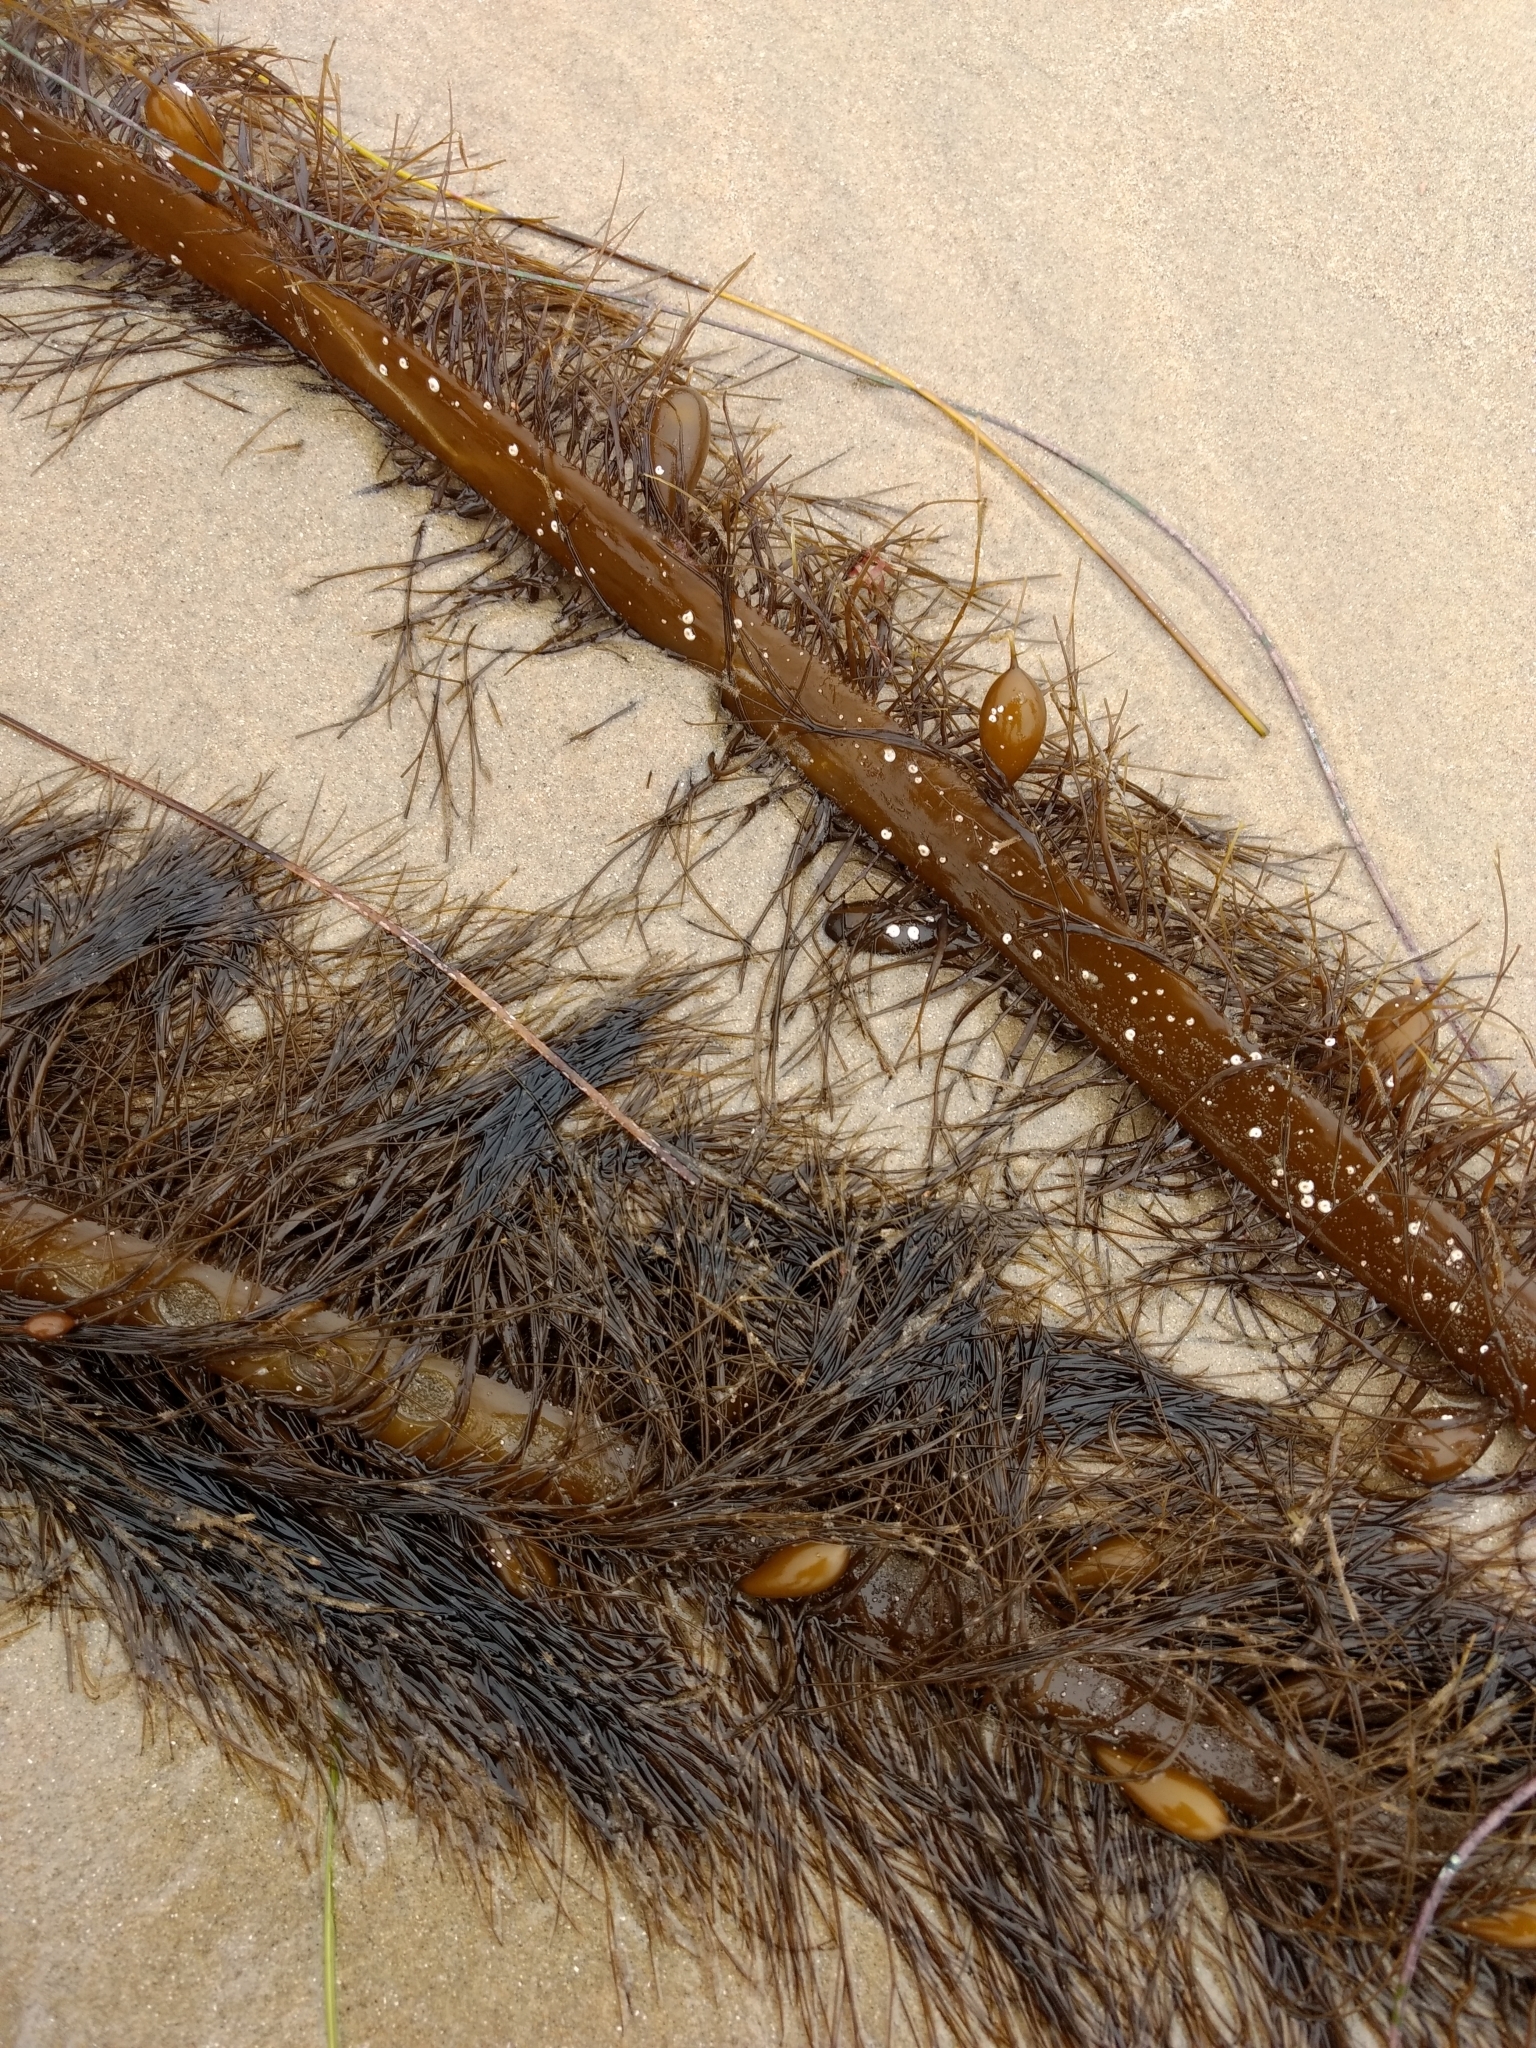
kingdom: Chromista
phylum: Ochrophyta
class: Phaeophyceae
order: Laminariales
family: Lessoniaceae
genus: Egregia
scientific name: Egregia menziesii
